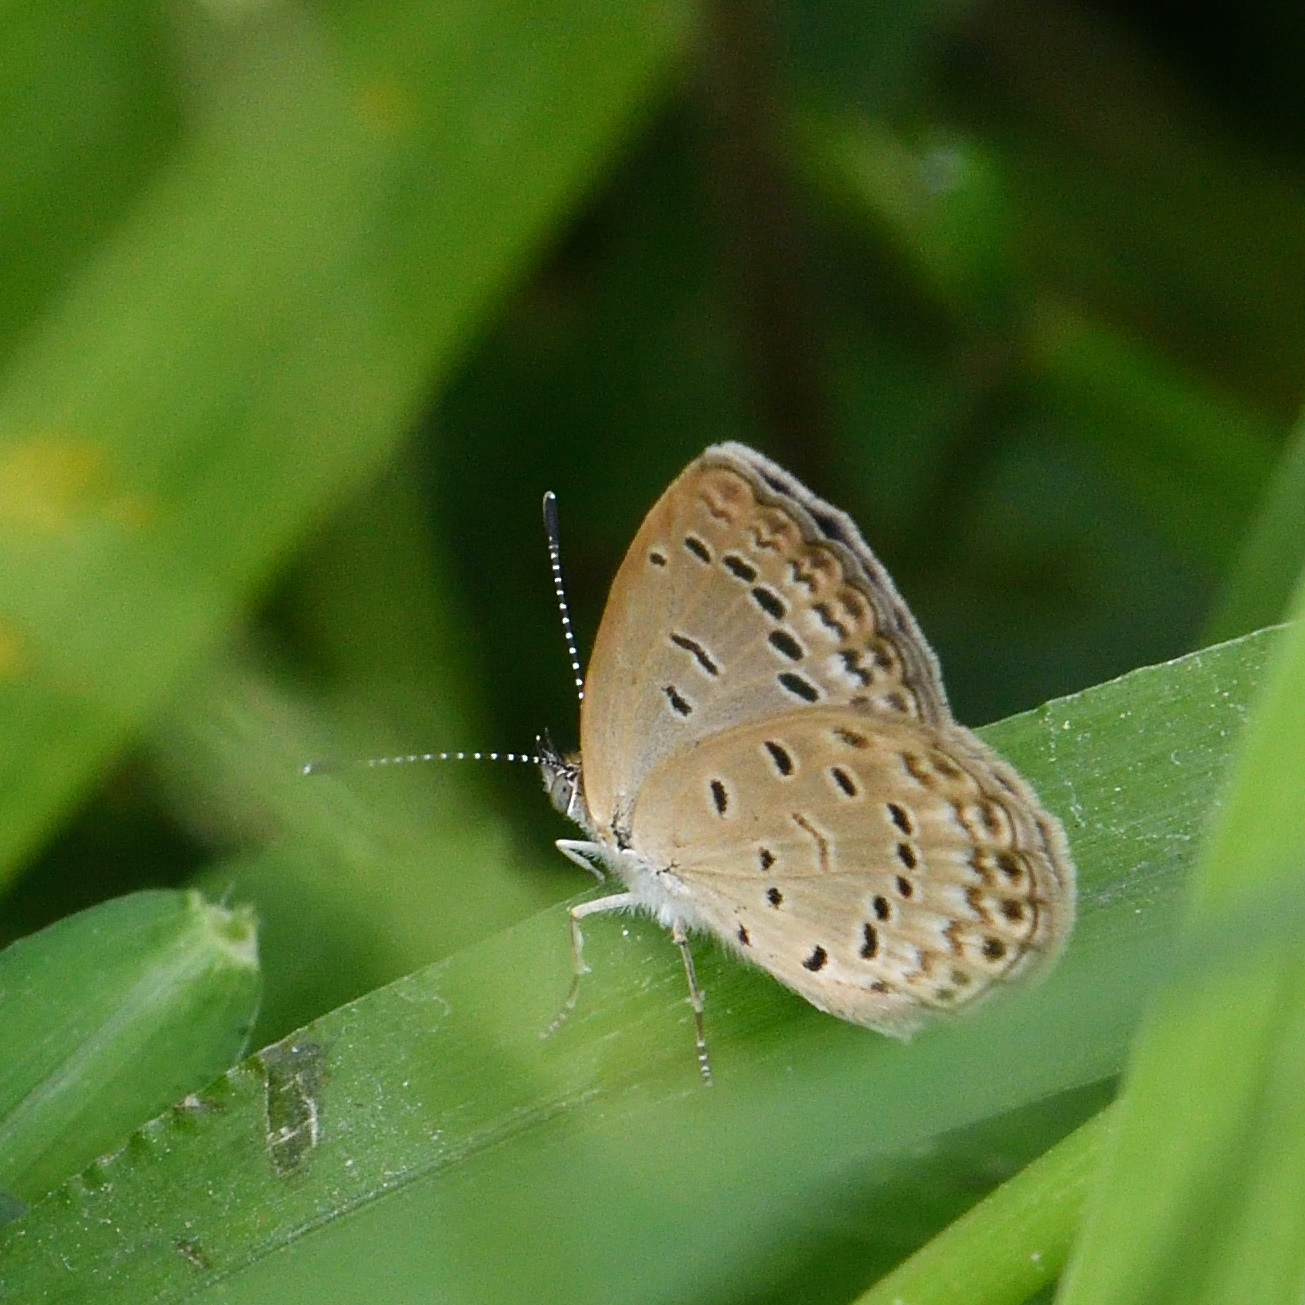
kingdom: Animalia
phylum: Arthropoda
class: Insecta
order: Lepidoptera
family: Lycaenidae
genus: Pseudozizeeria
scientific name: Pseudozizeeria maha
